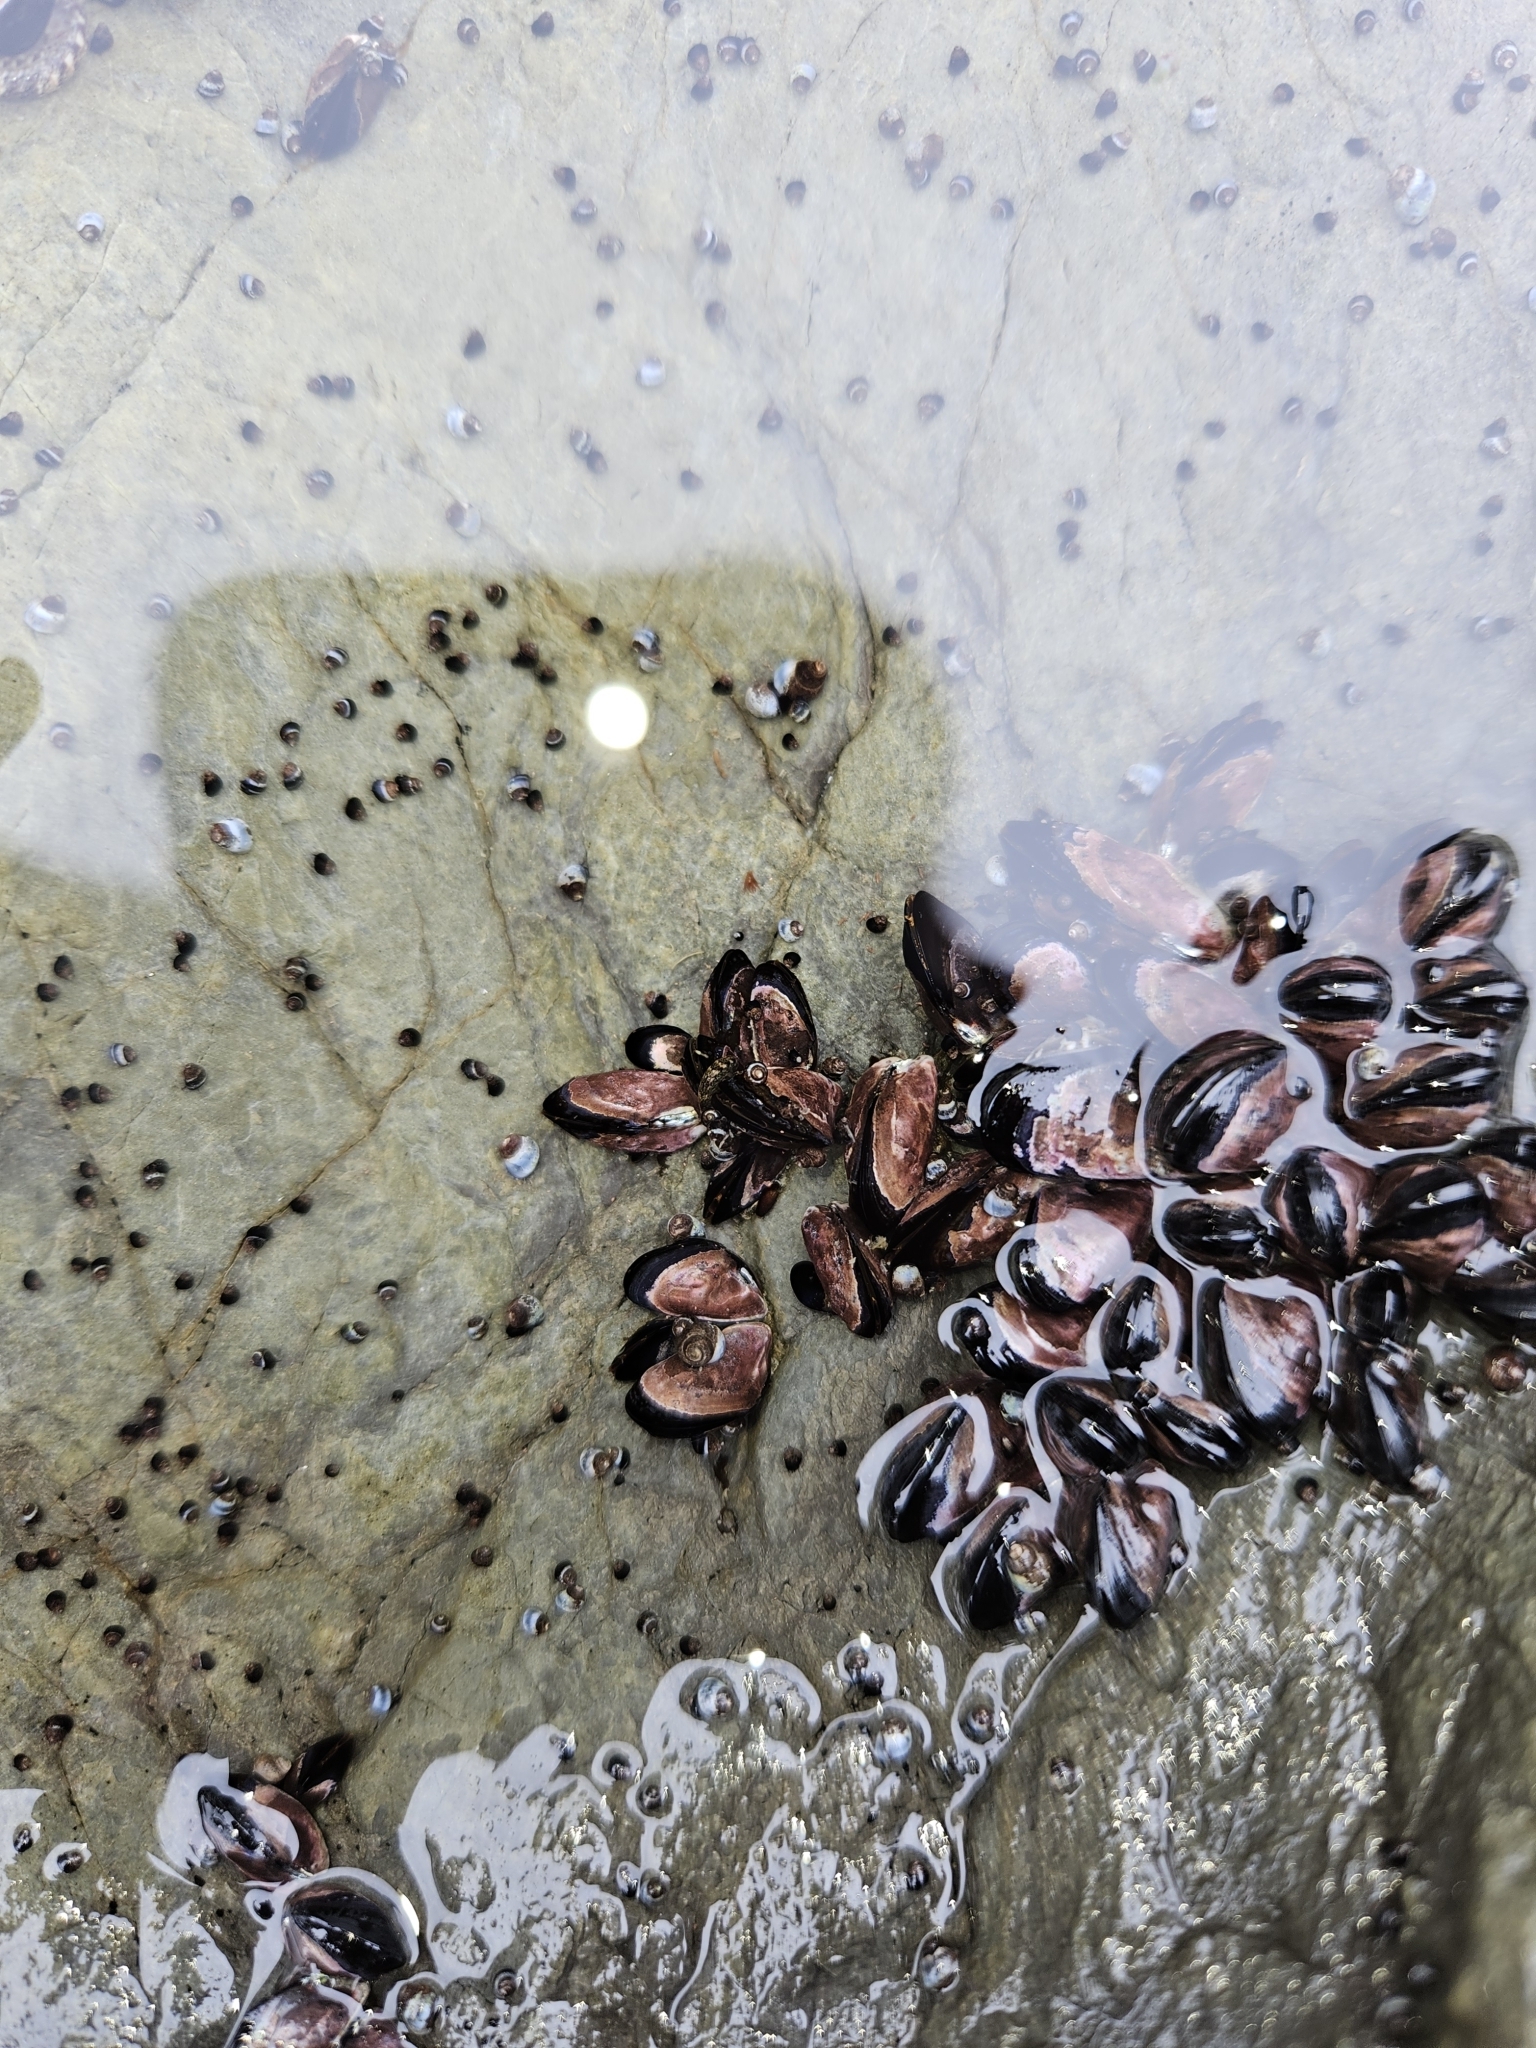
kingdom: Animalia
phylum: Mollusca
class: Bivalvia
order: Mytilida
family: Mytilidae
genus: Xenostrobus
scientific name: Xenostrobus neozelanicus
